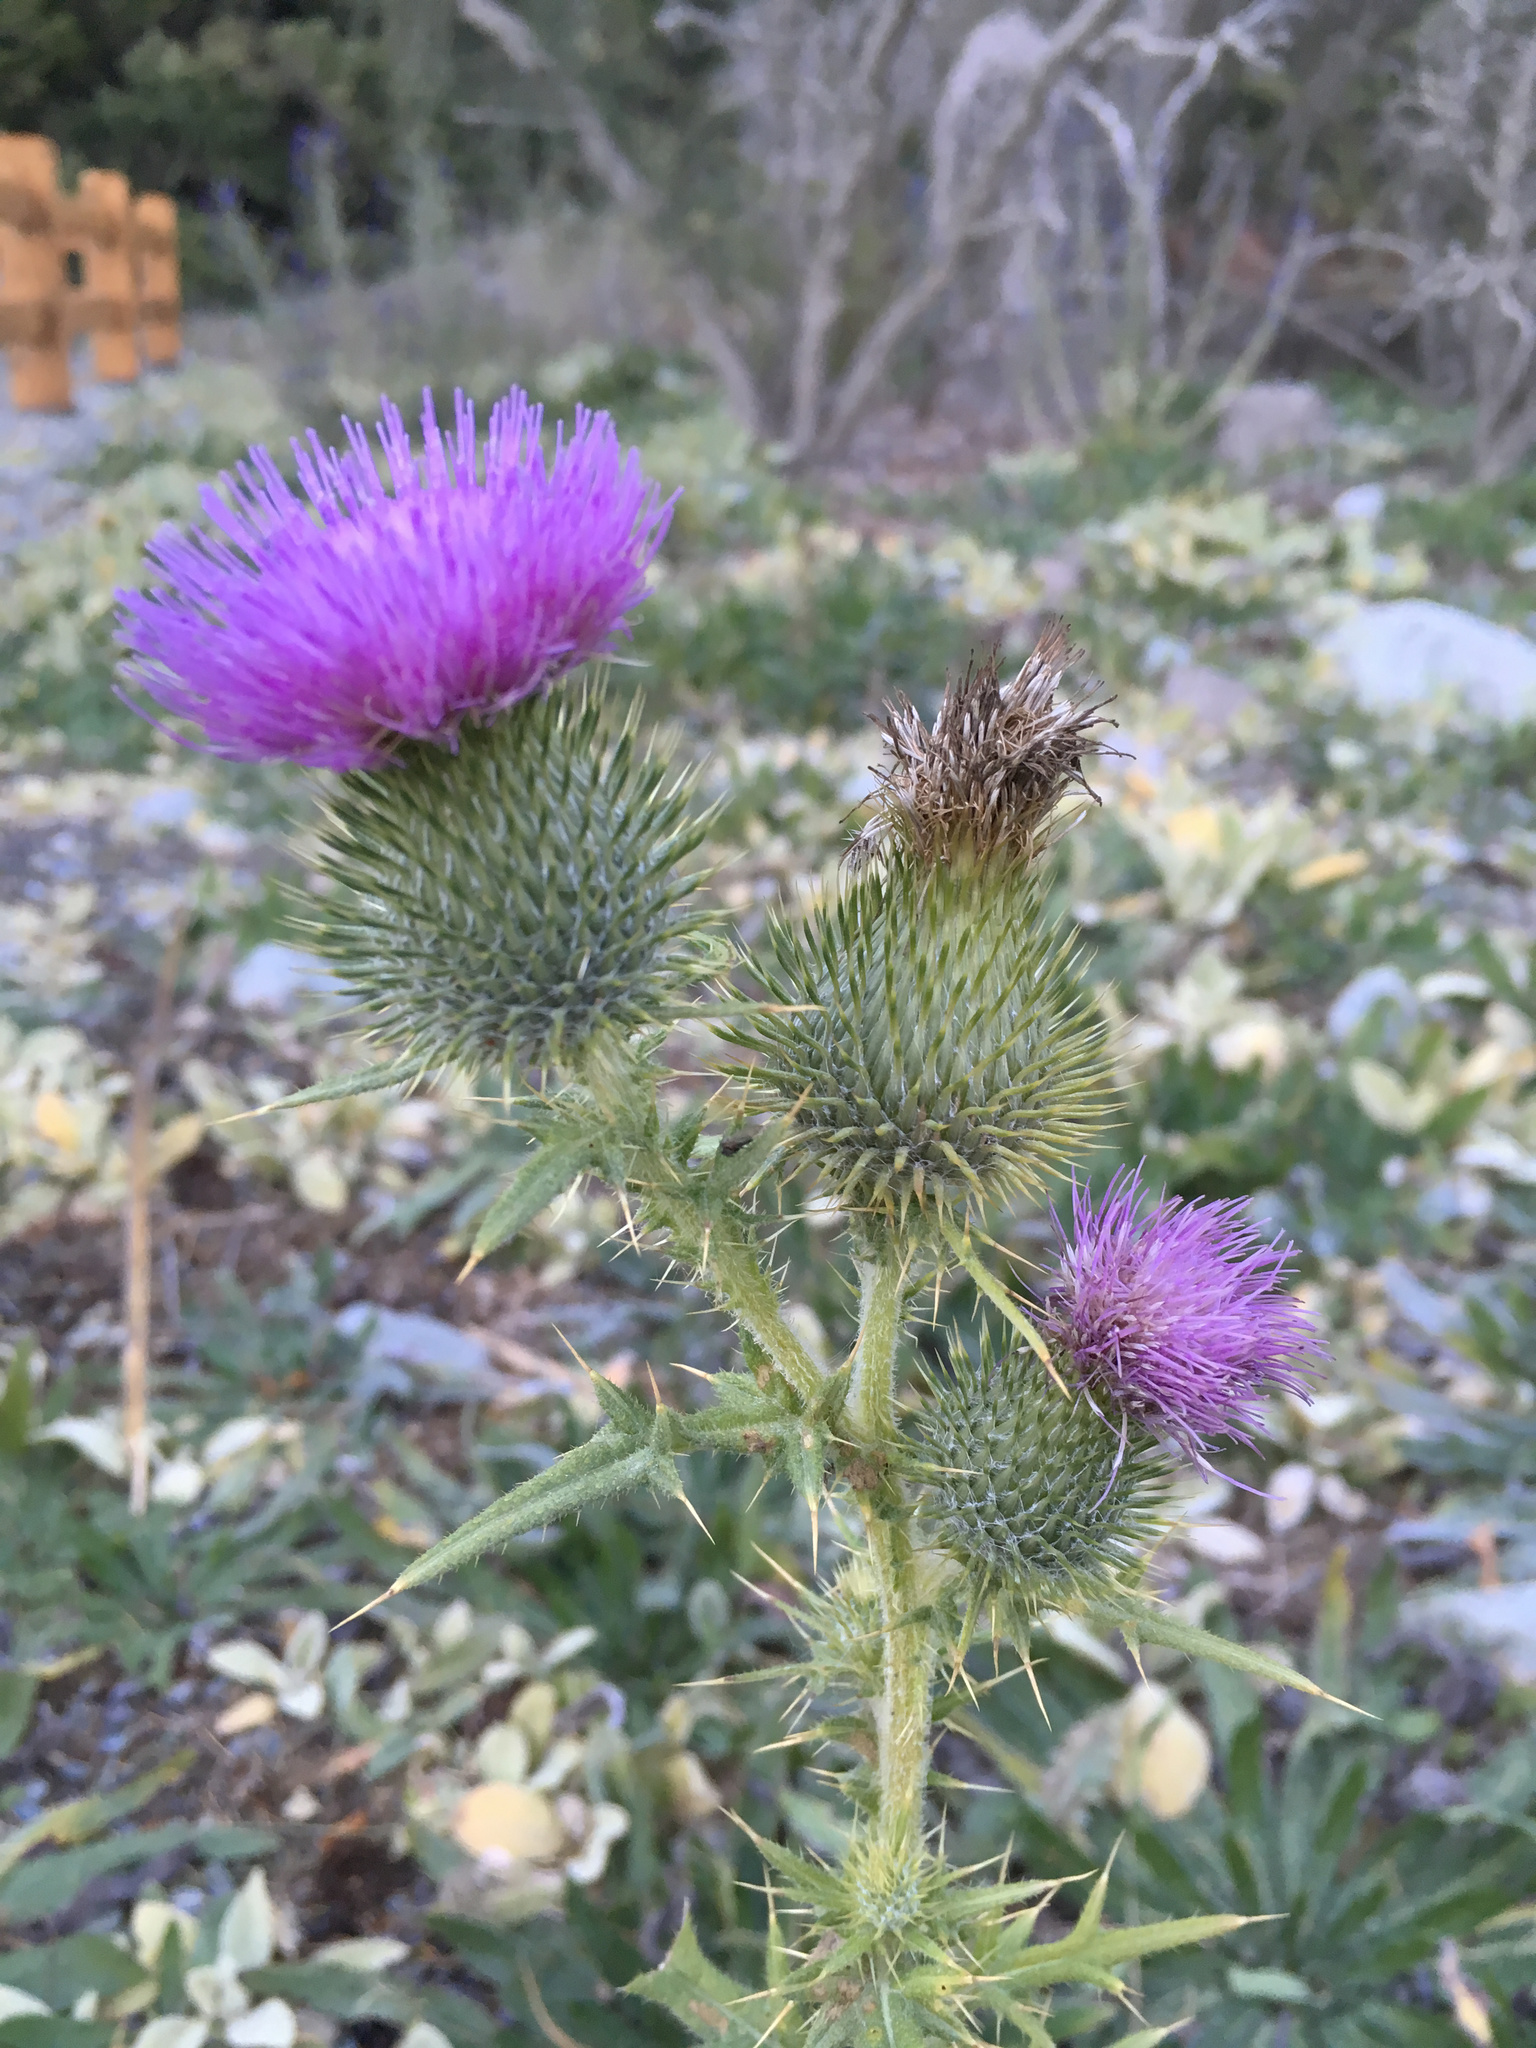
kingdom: Plantae
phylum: Tracheophyta
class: Magnoliopsida
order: Asterales
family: Asteraceae
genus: Cirsium
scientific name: Cirsium vulgare
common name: Bull thistle
